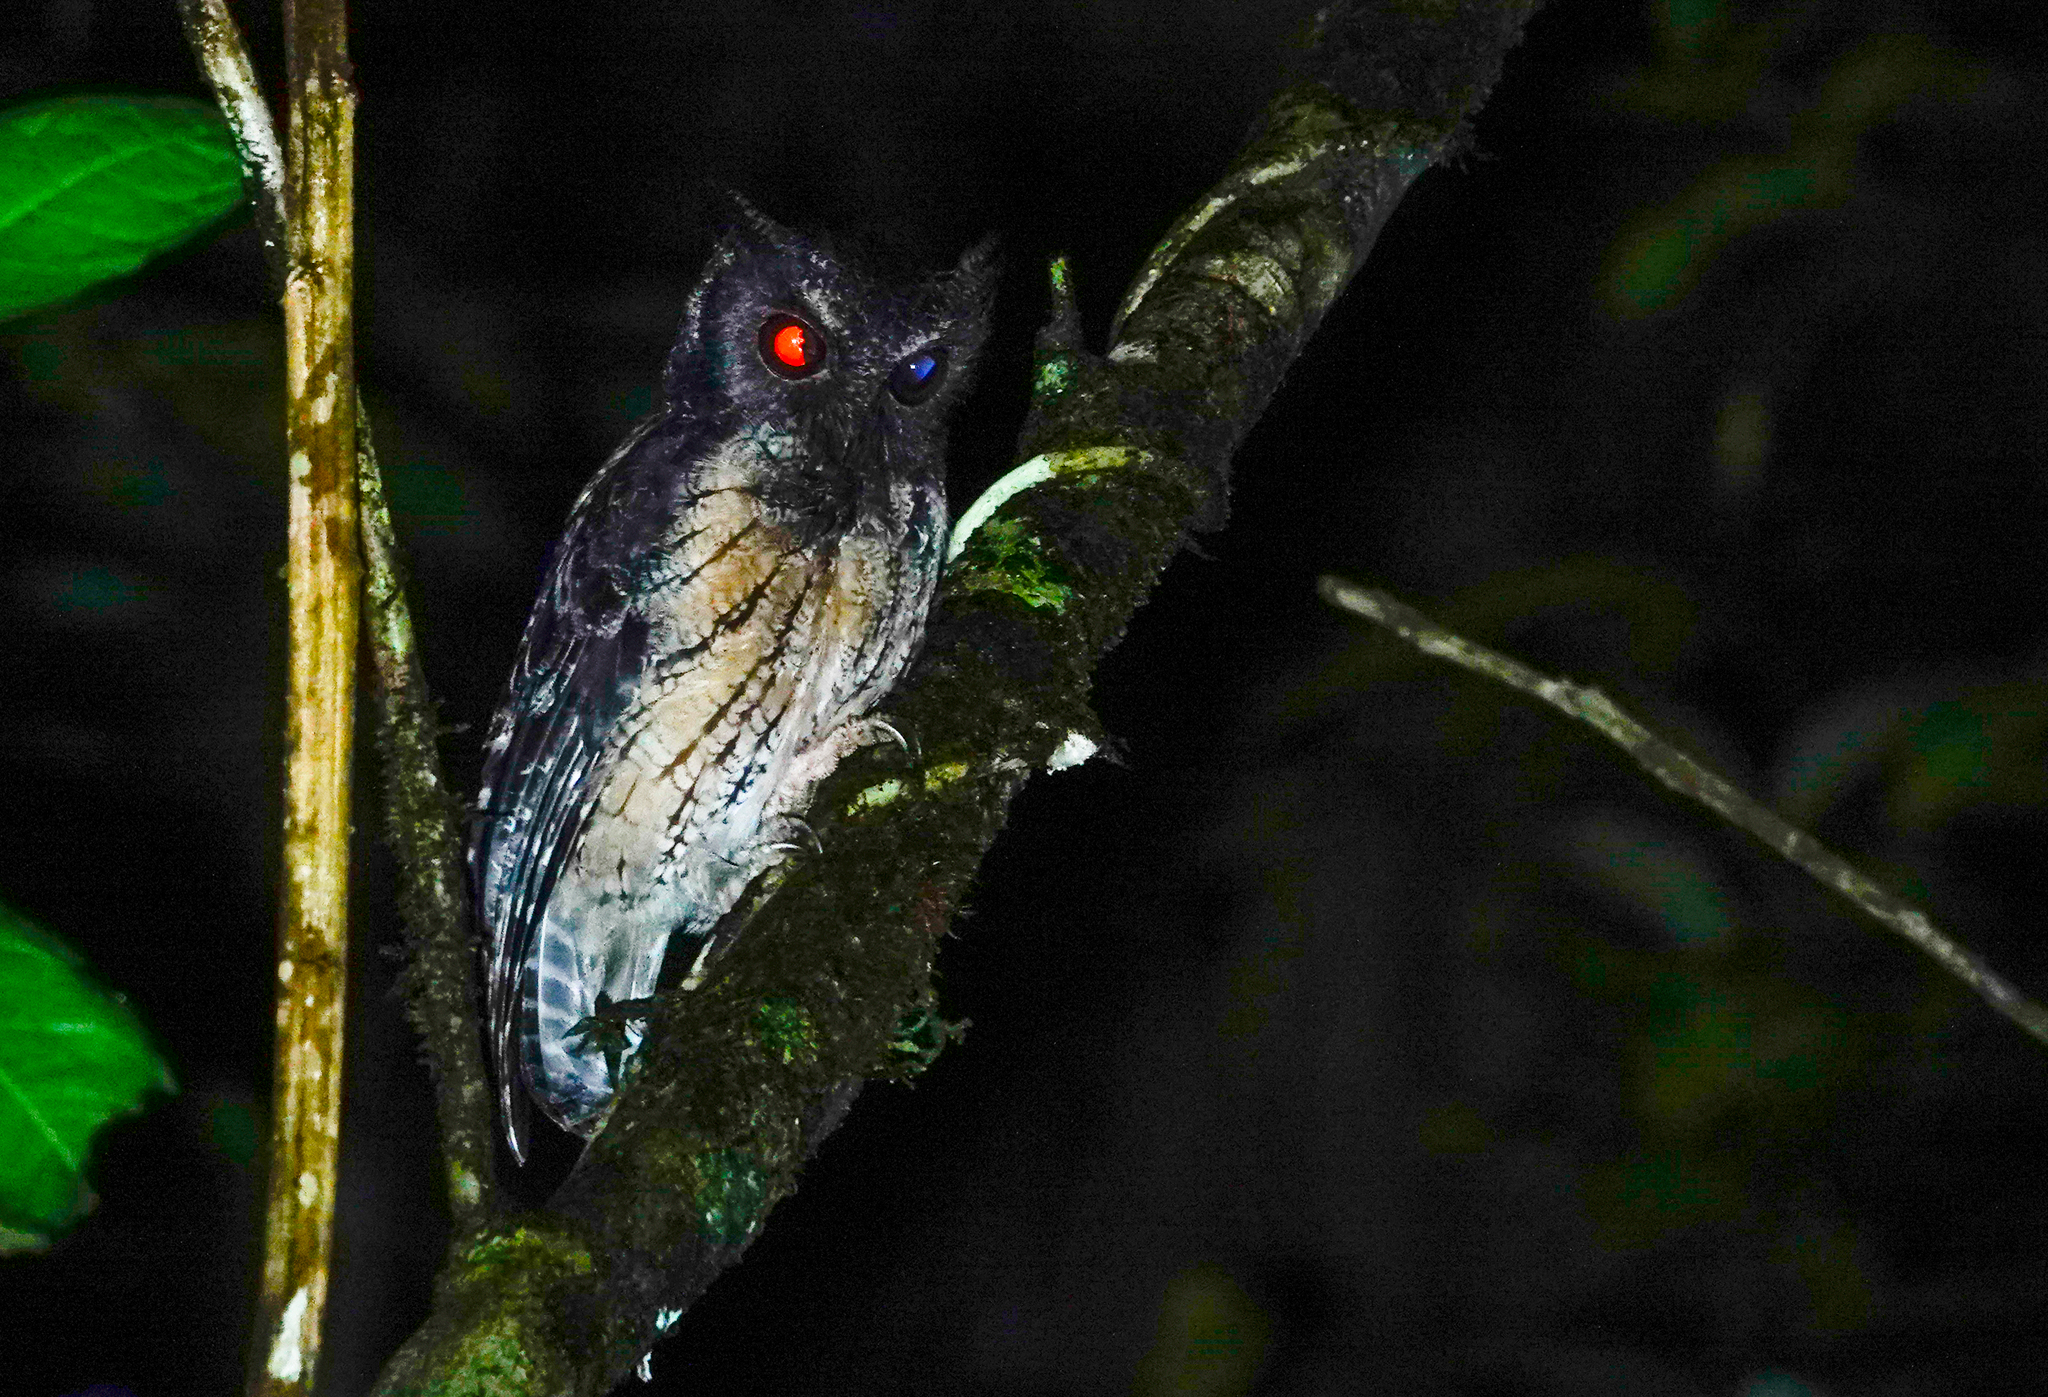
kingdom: Animalia
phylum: Chordata
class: Aves
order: Strigiformes
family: Strigidae
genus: Megascops
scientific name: Megascops watsonii
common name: Tawny-bellied screech-owl
